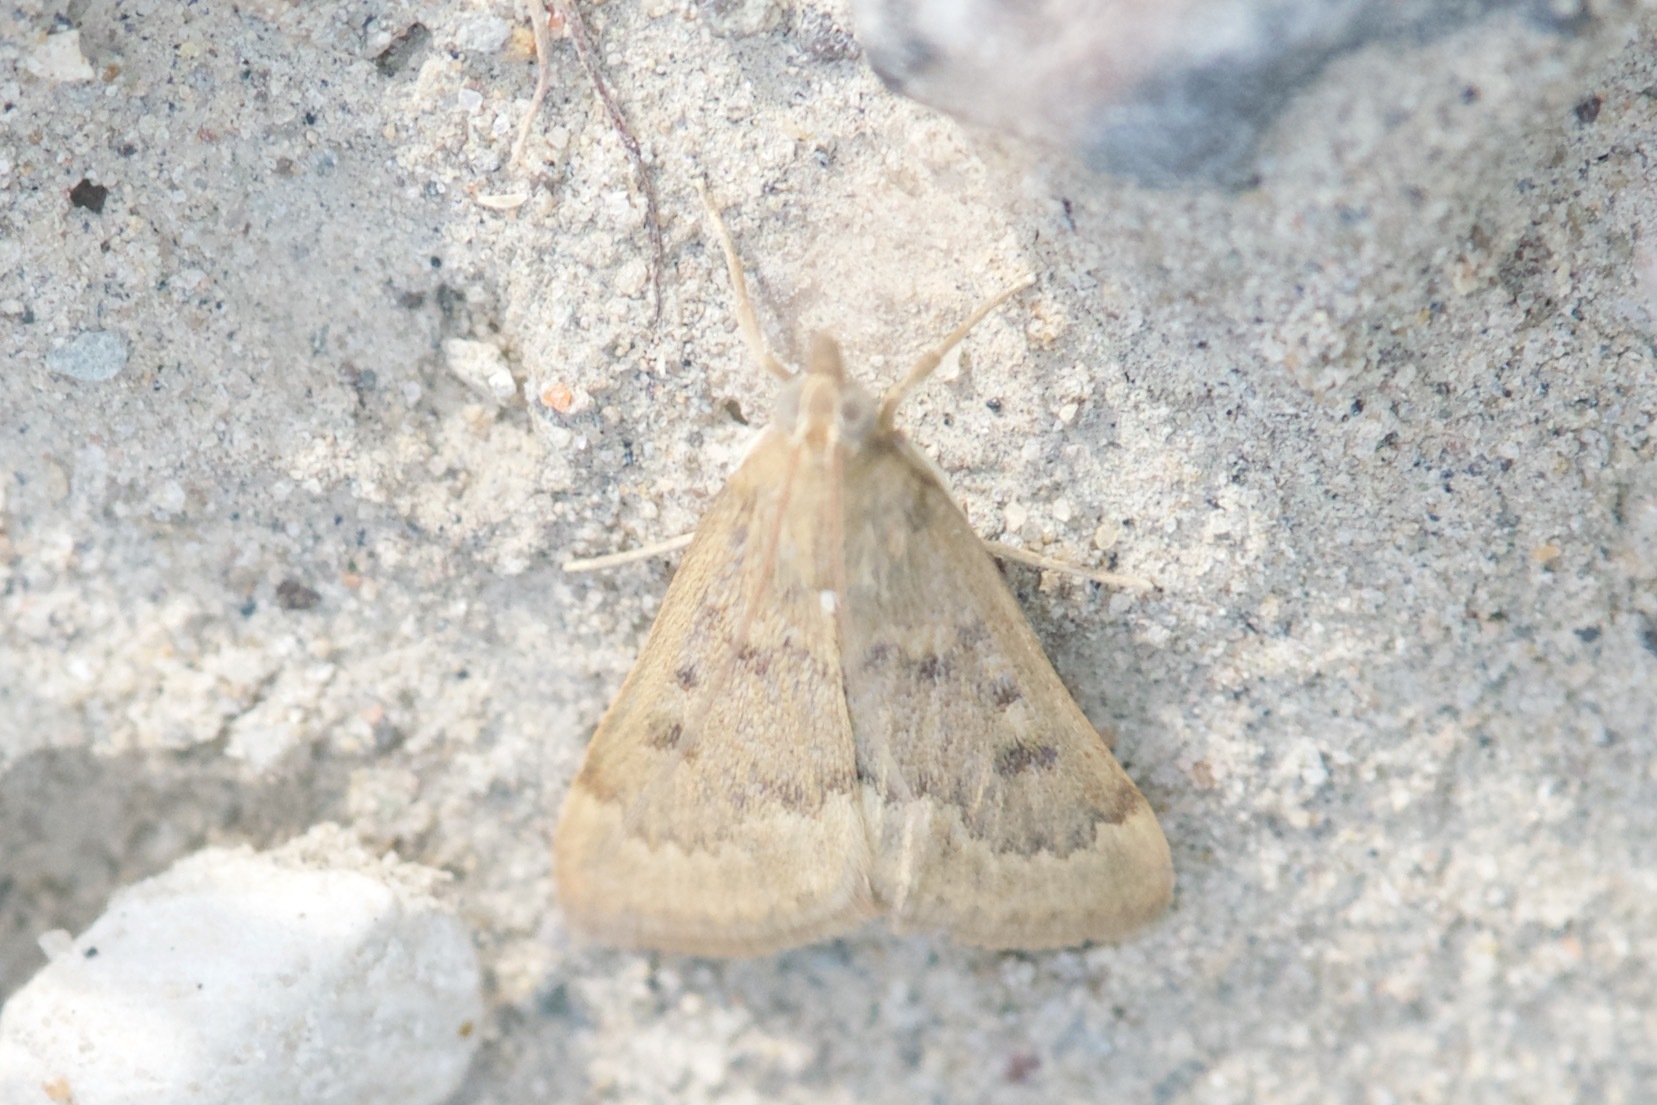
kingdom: Animalia
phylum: Arthropoda
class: Insecta
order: Lepidoptera
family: Crambidae
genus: Achyra
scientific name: Achyra rantalis
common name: Garden webworm
